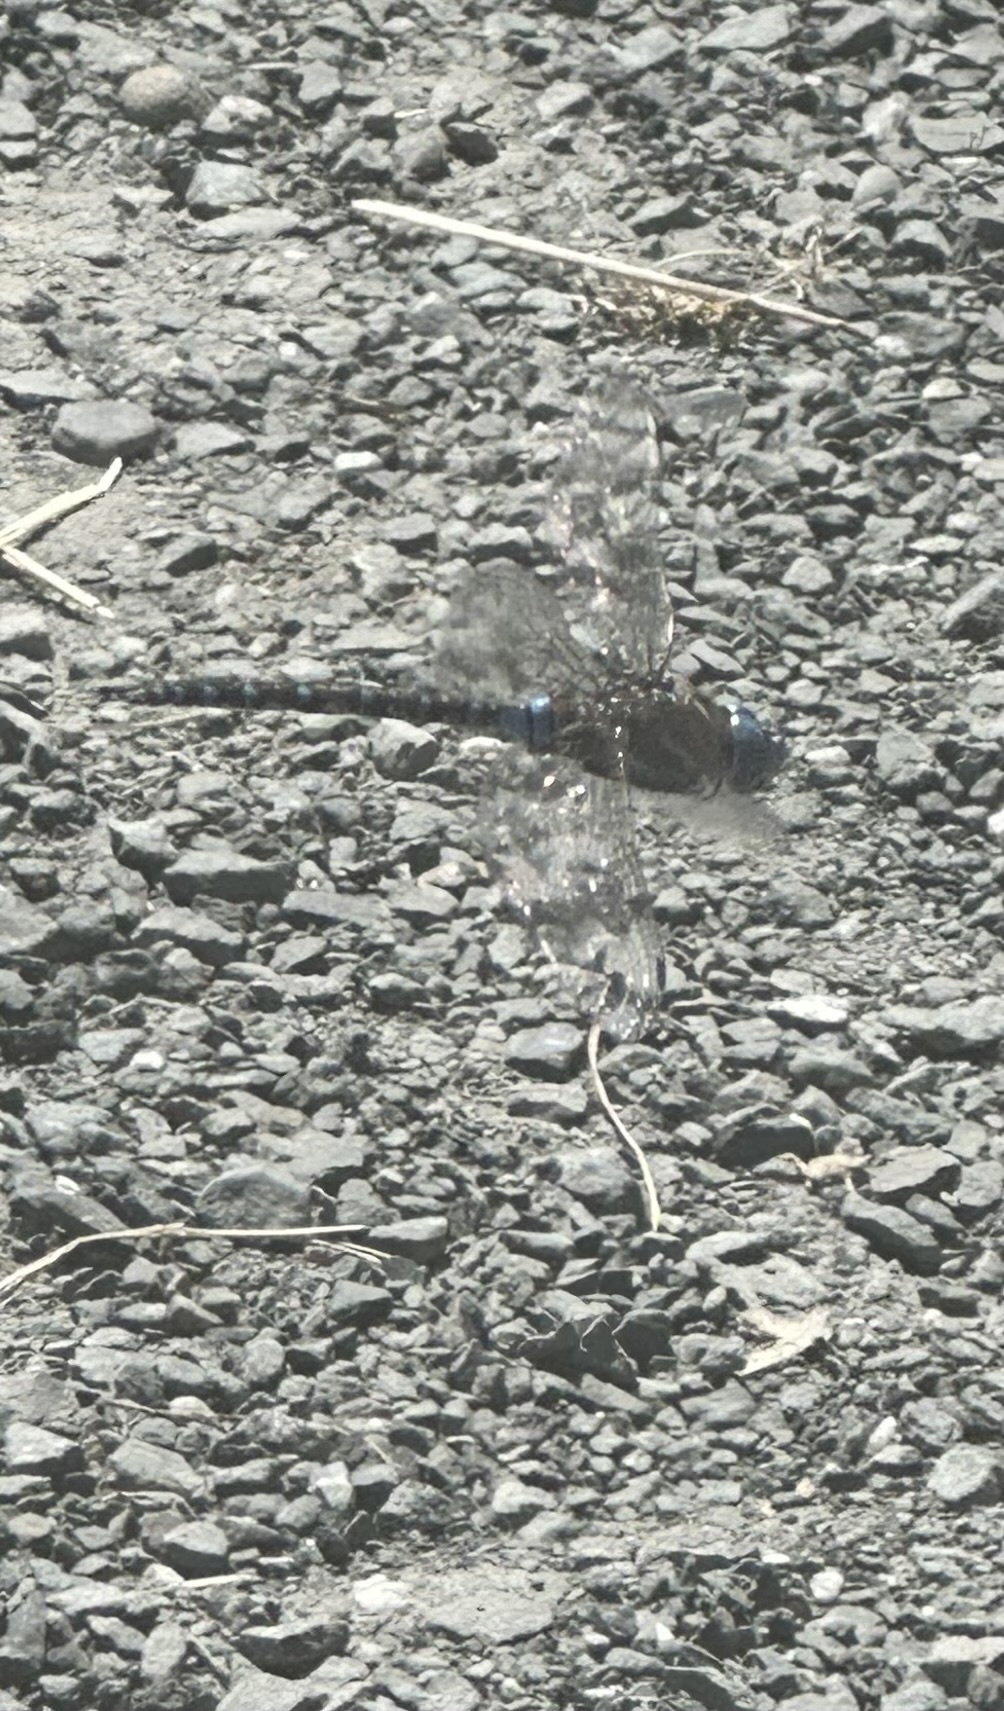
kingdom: Animalia
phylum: Arthropoda
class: Insecta
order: Odonata
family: Aeshnidae
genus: Rhionaeschna
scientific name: Rhionaeschna multicolor
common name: Blue-eyed darner
